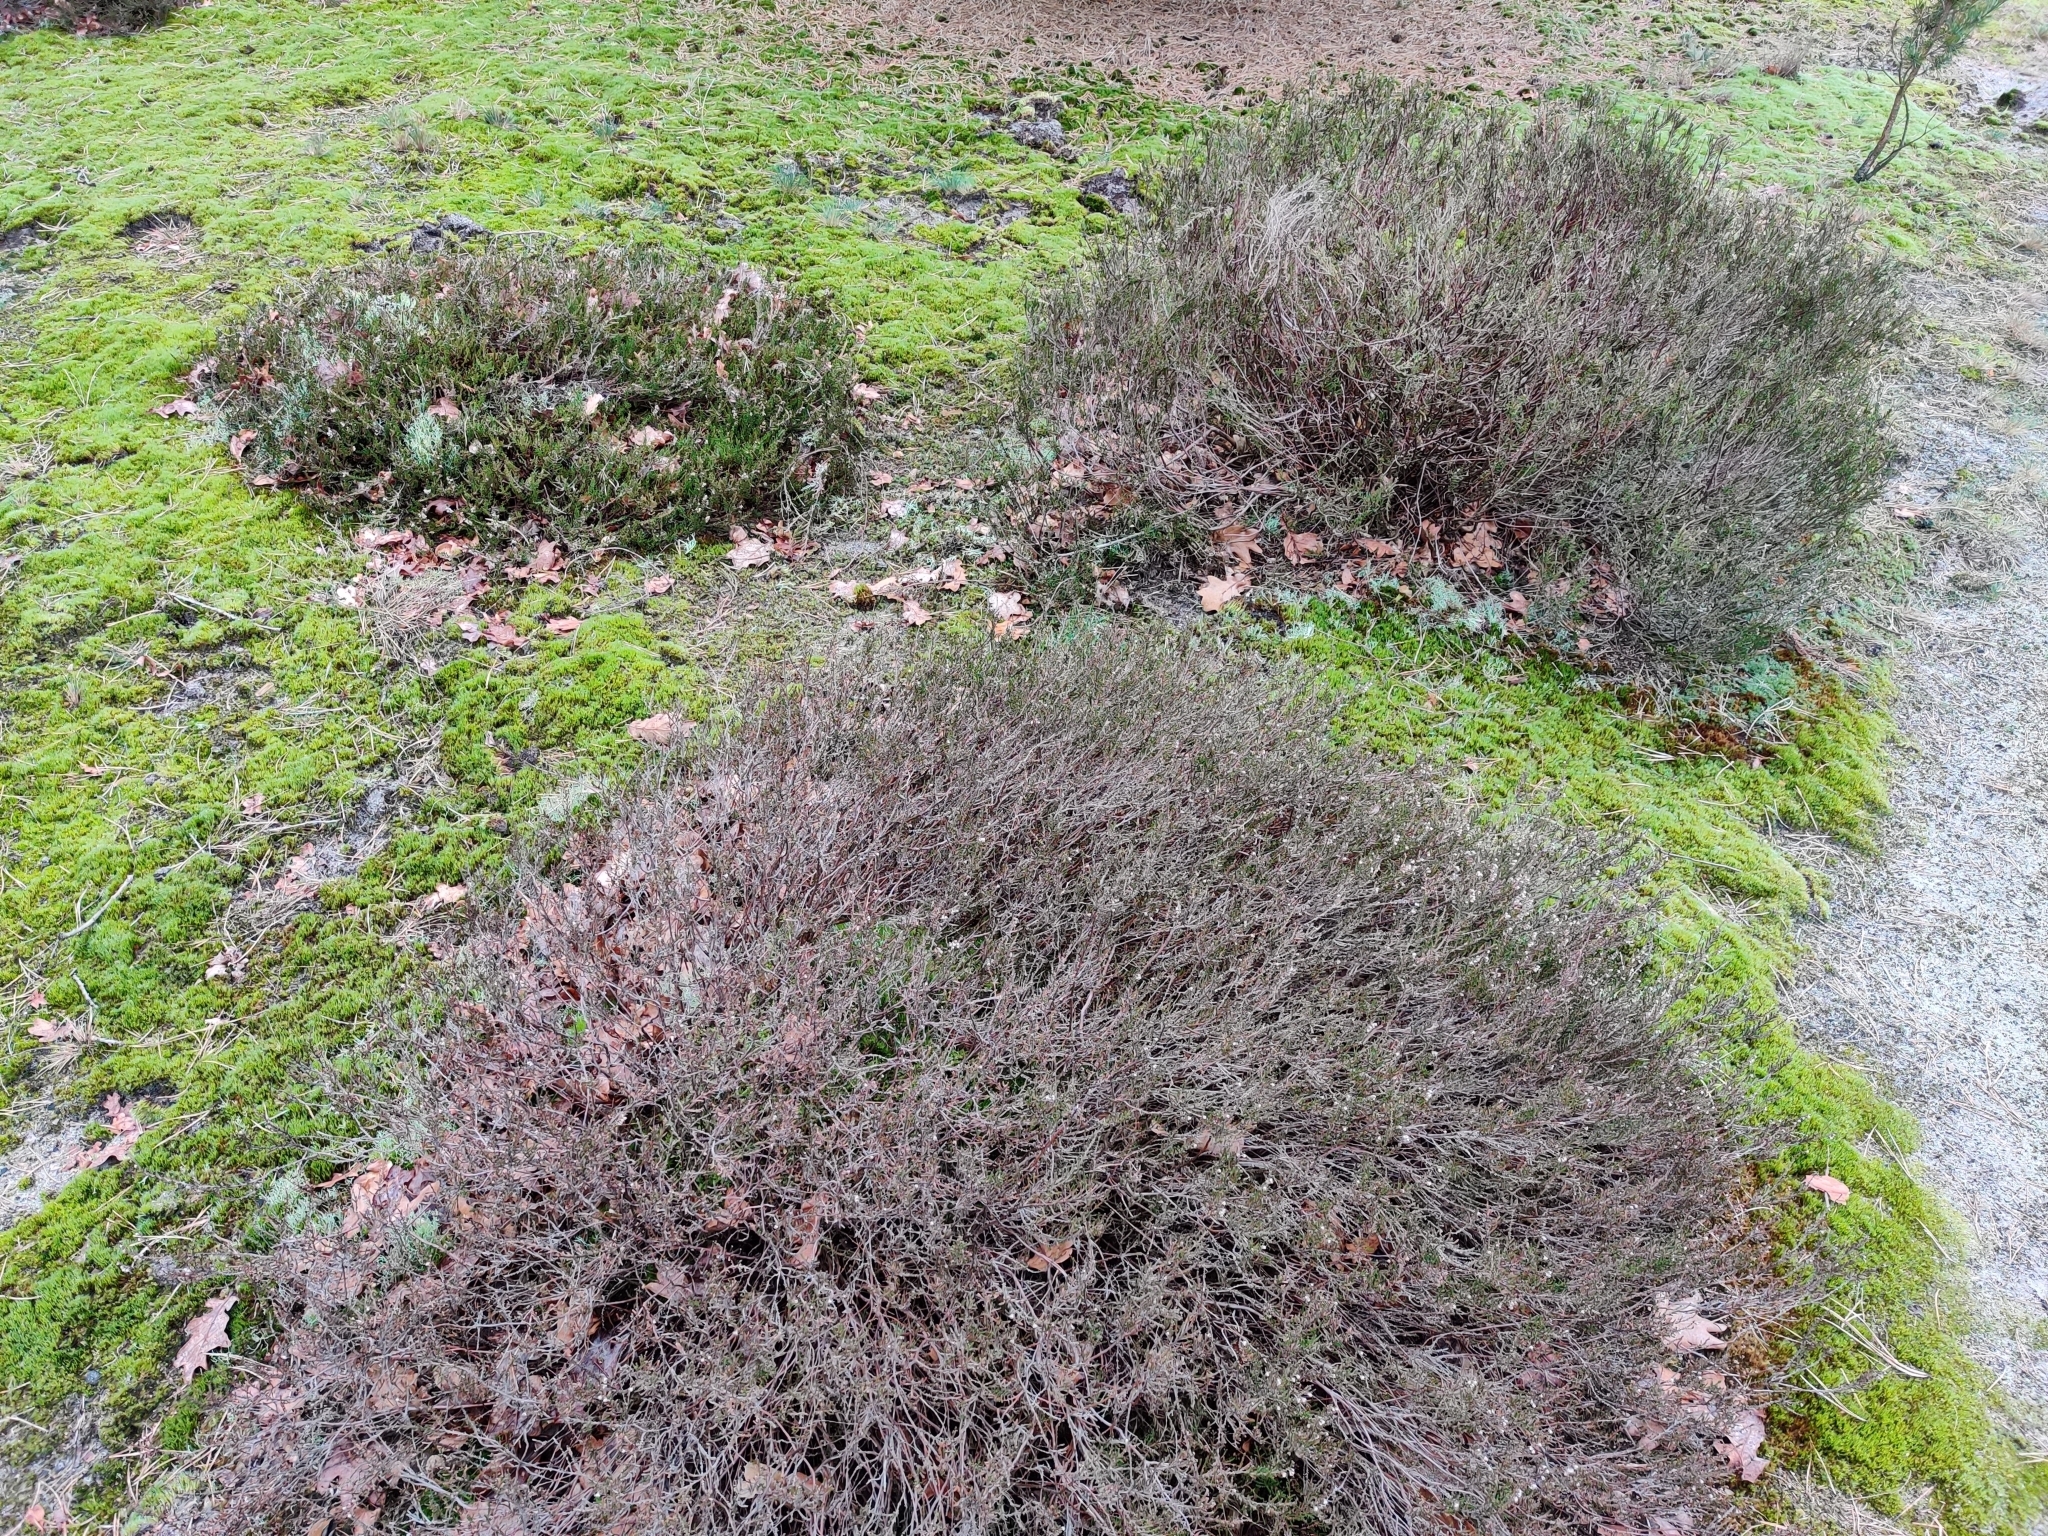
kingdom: Plantae
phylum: Tracheophyta
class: Magnoliopsida
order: Ericales
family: Ericaceae
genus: Calluna
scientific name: Calluna vulgaris
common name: Heather
